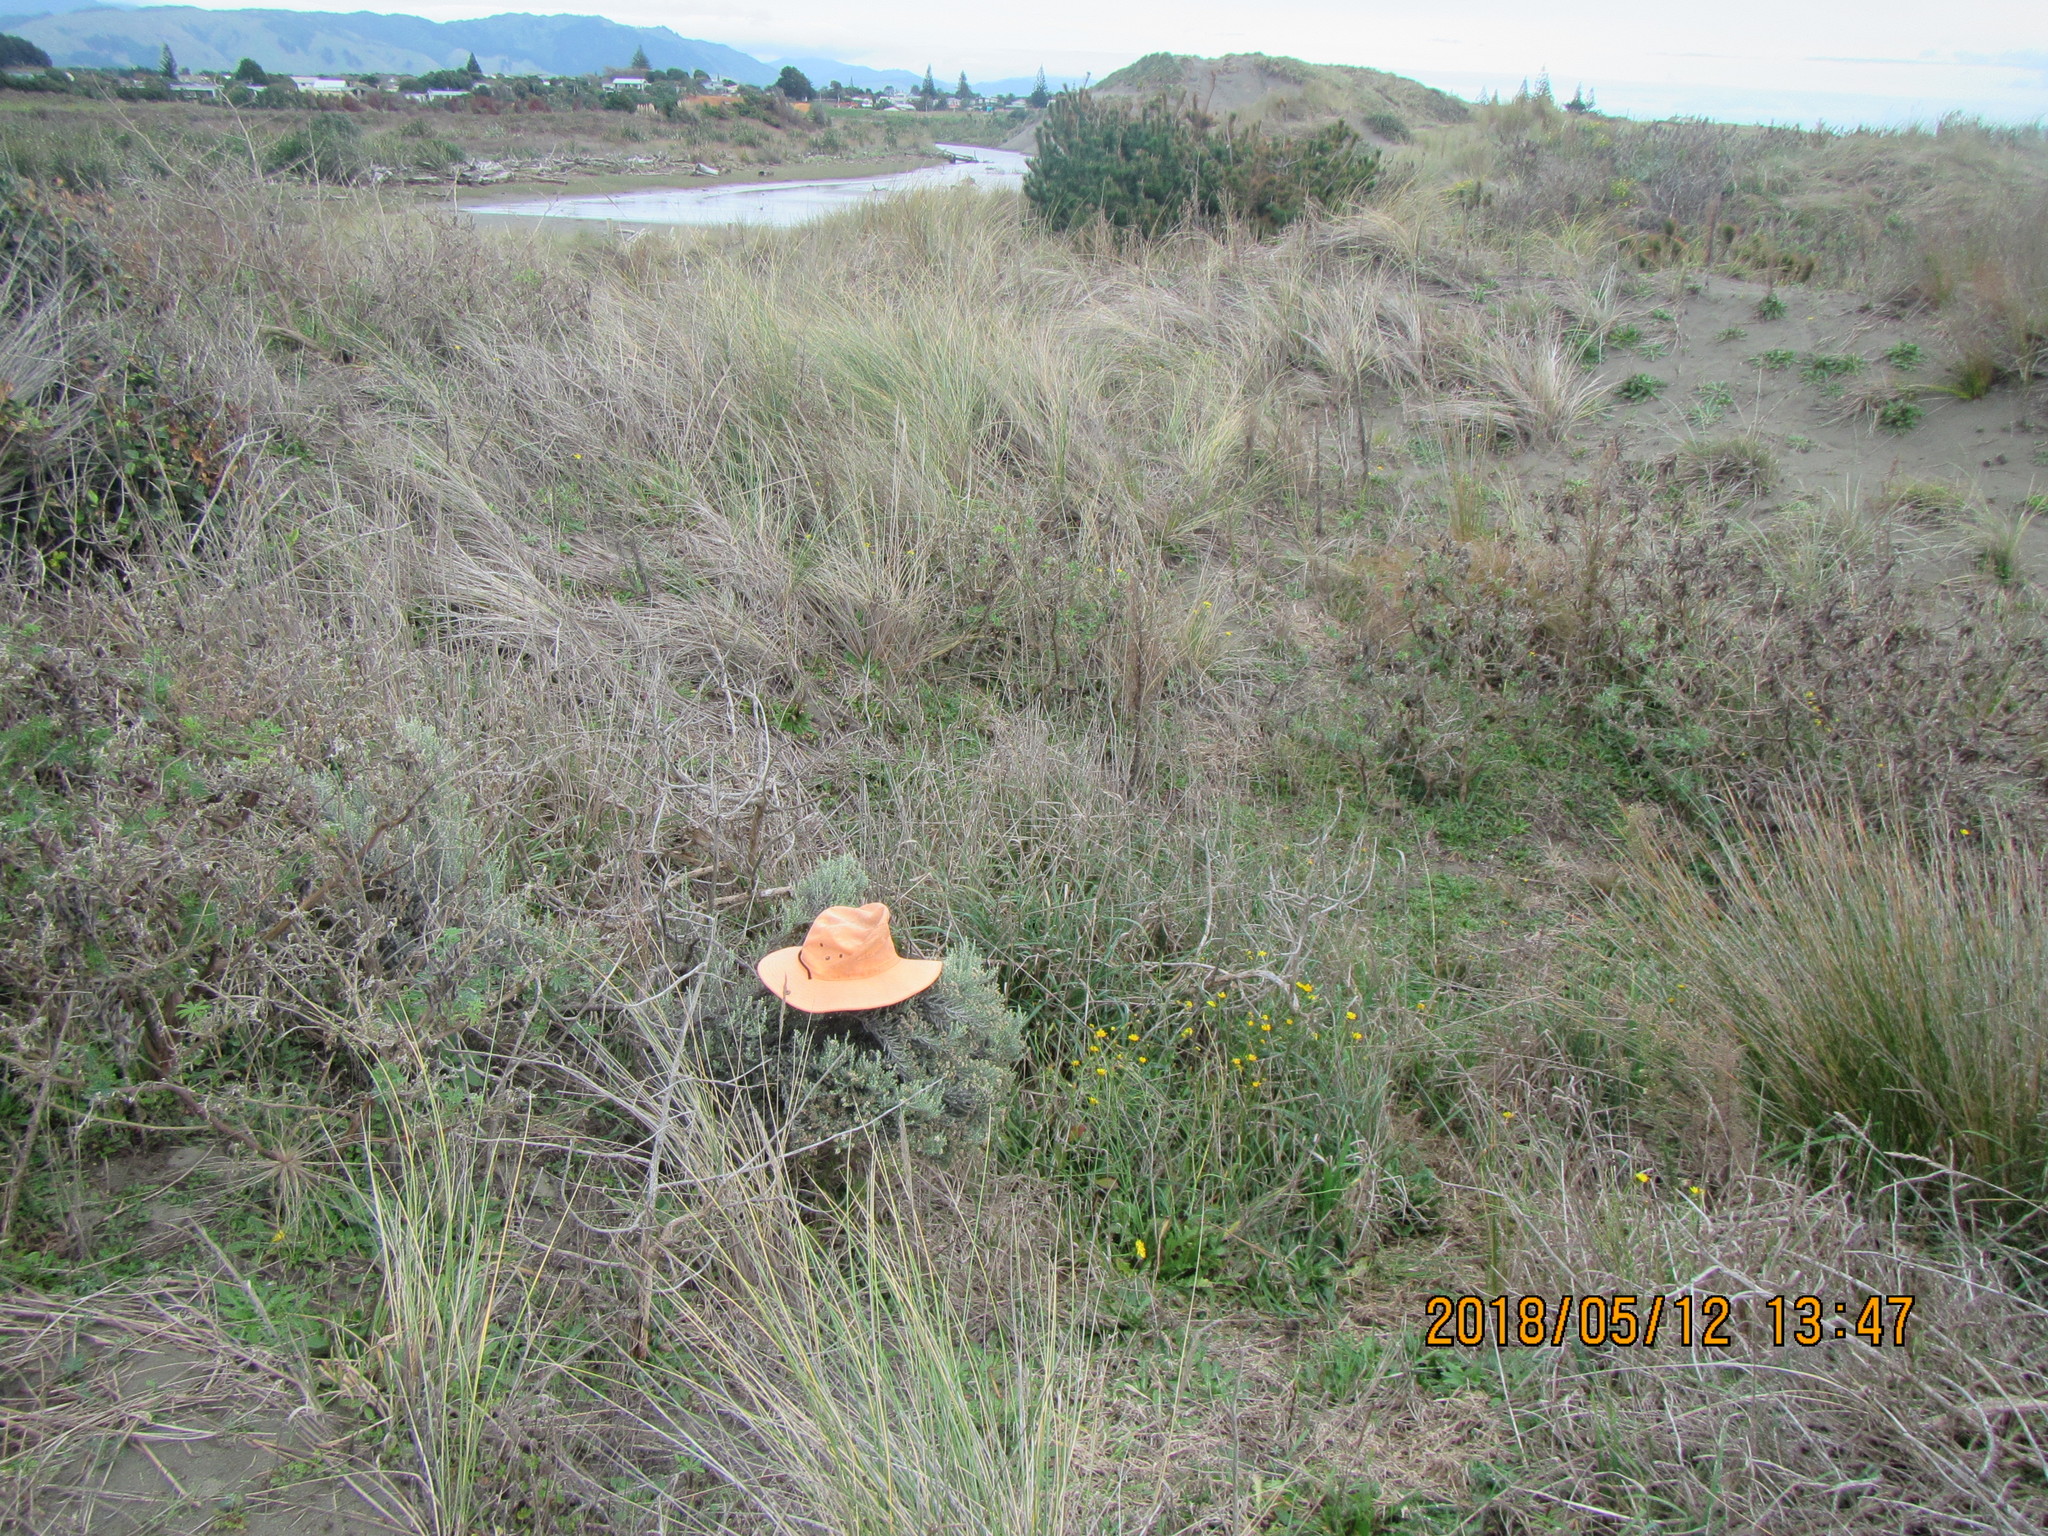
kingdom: Plantae
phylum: Tracheophyta
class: Magnoliopsida
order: Asterales
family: Asteraceae
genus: Ozothamnus
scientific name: Ozothamnus leptophyllus
